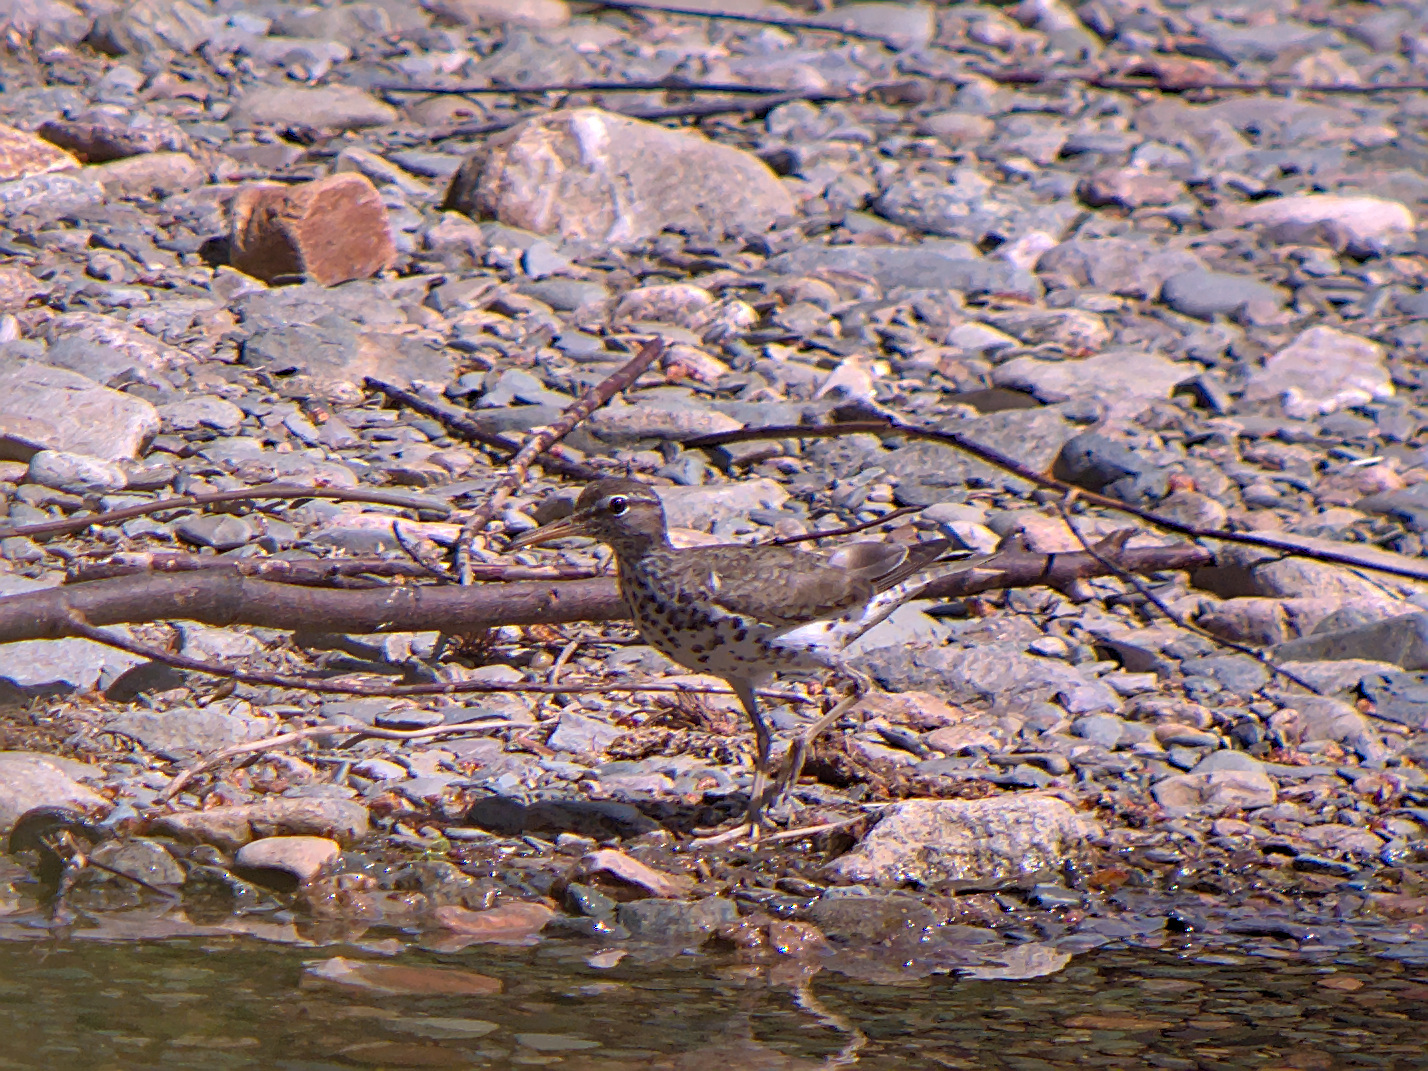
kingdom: Animalia
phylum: Chordata
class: Aves
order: Charadriiformes
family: Scolopacidae
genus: Actitis
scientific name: Actitis macularius
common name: Spotted sandpiper
